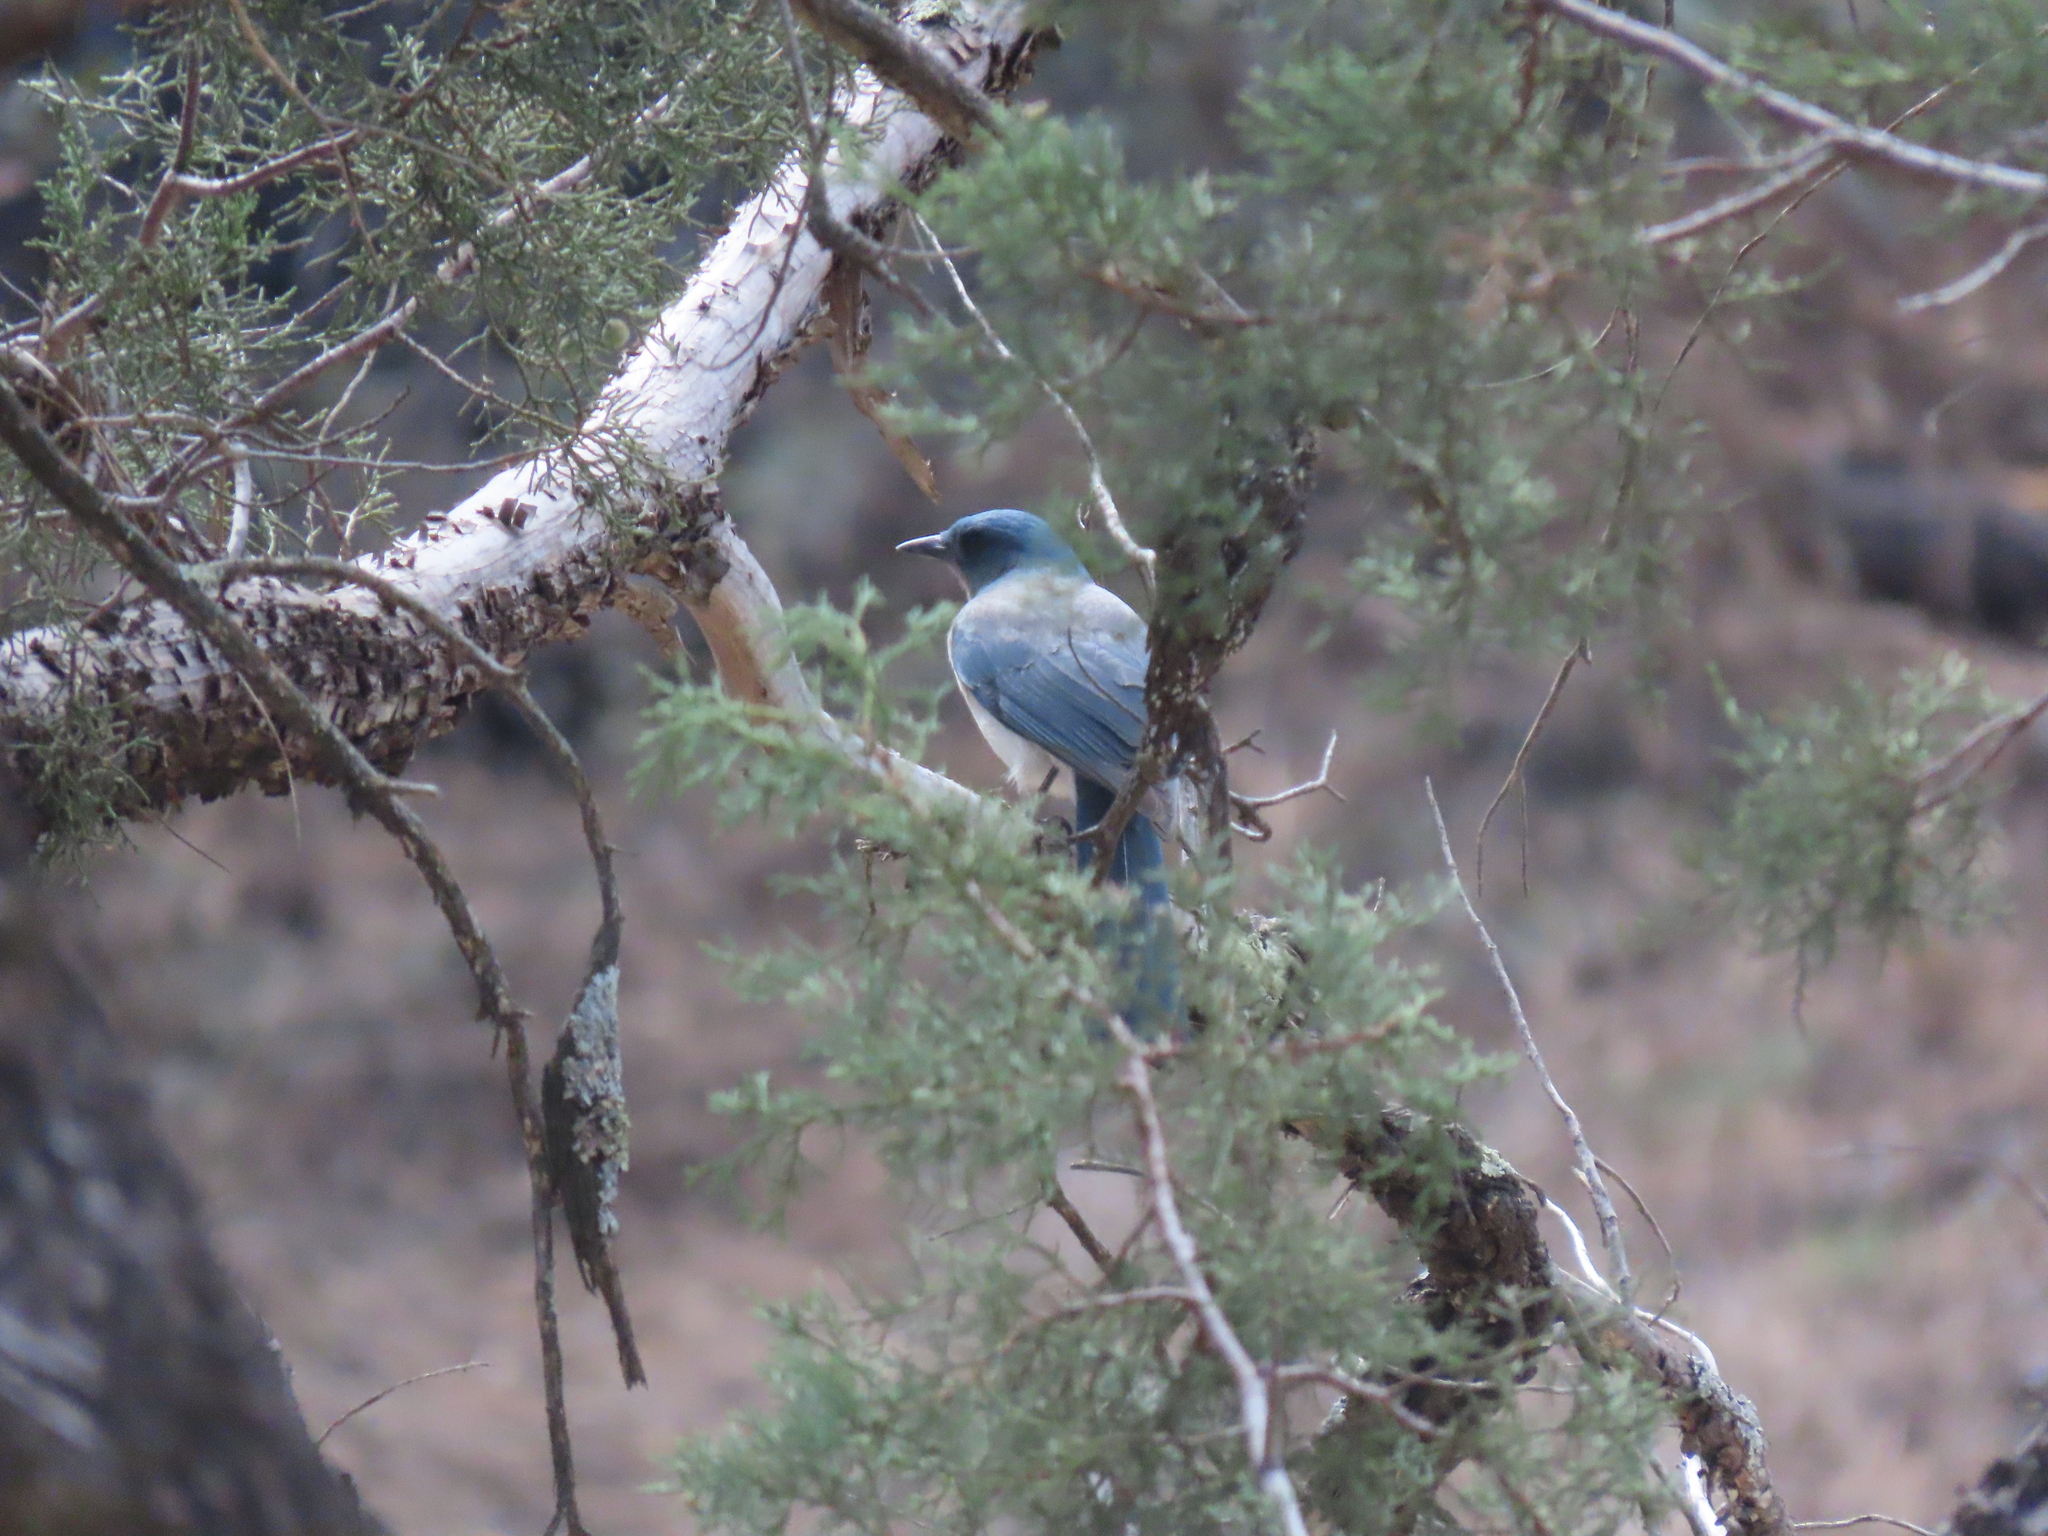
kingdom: Animalia
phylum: Chordata
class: Aves
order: Passeriformes
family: Corvidae
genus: Aphelocoma
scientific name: Aphelocoma wollweberi
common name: Mexican jay
